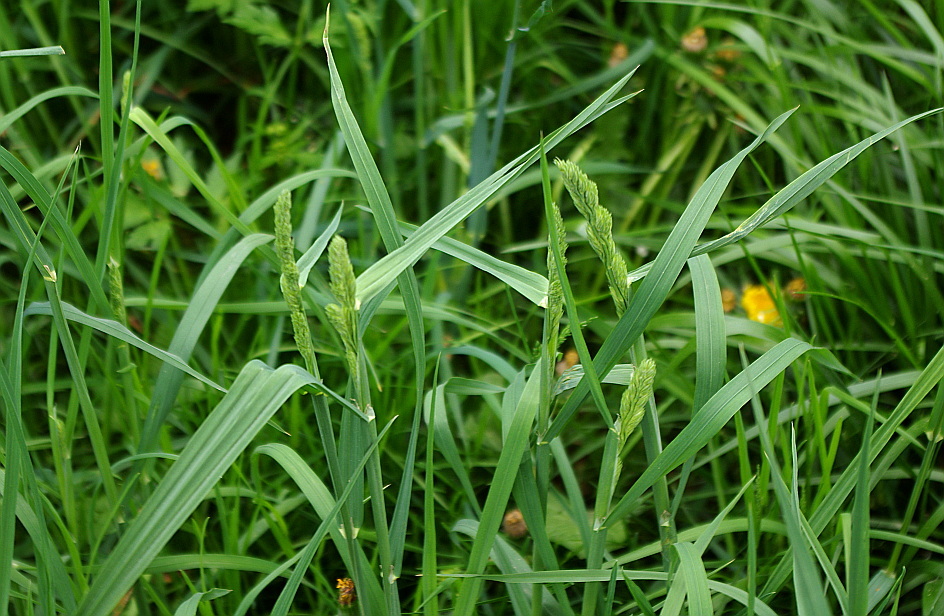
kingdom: Plantae
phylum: Tracheophyta
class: Liliopsida
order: Poales
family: Poaceae
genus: Dactylis
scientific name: Dactylis glomerata
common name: Orchardgrass
